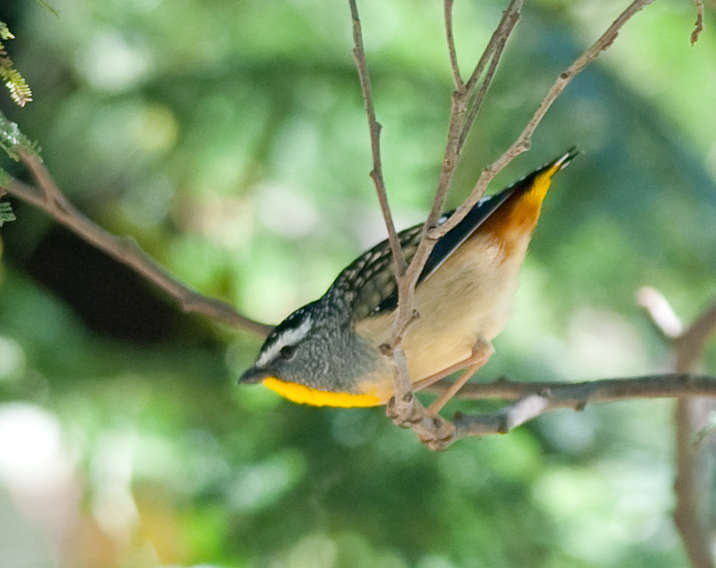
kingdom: Animalia
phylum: Chordata
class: Aves
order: Passeriformes
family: Pardalotidae
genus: Pardalotus
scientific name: Pardalotus punctatus
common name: Spotted pardalote
